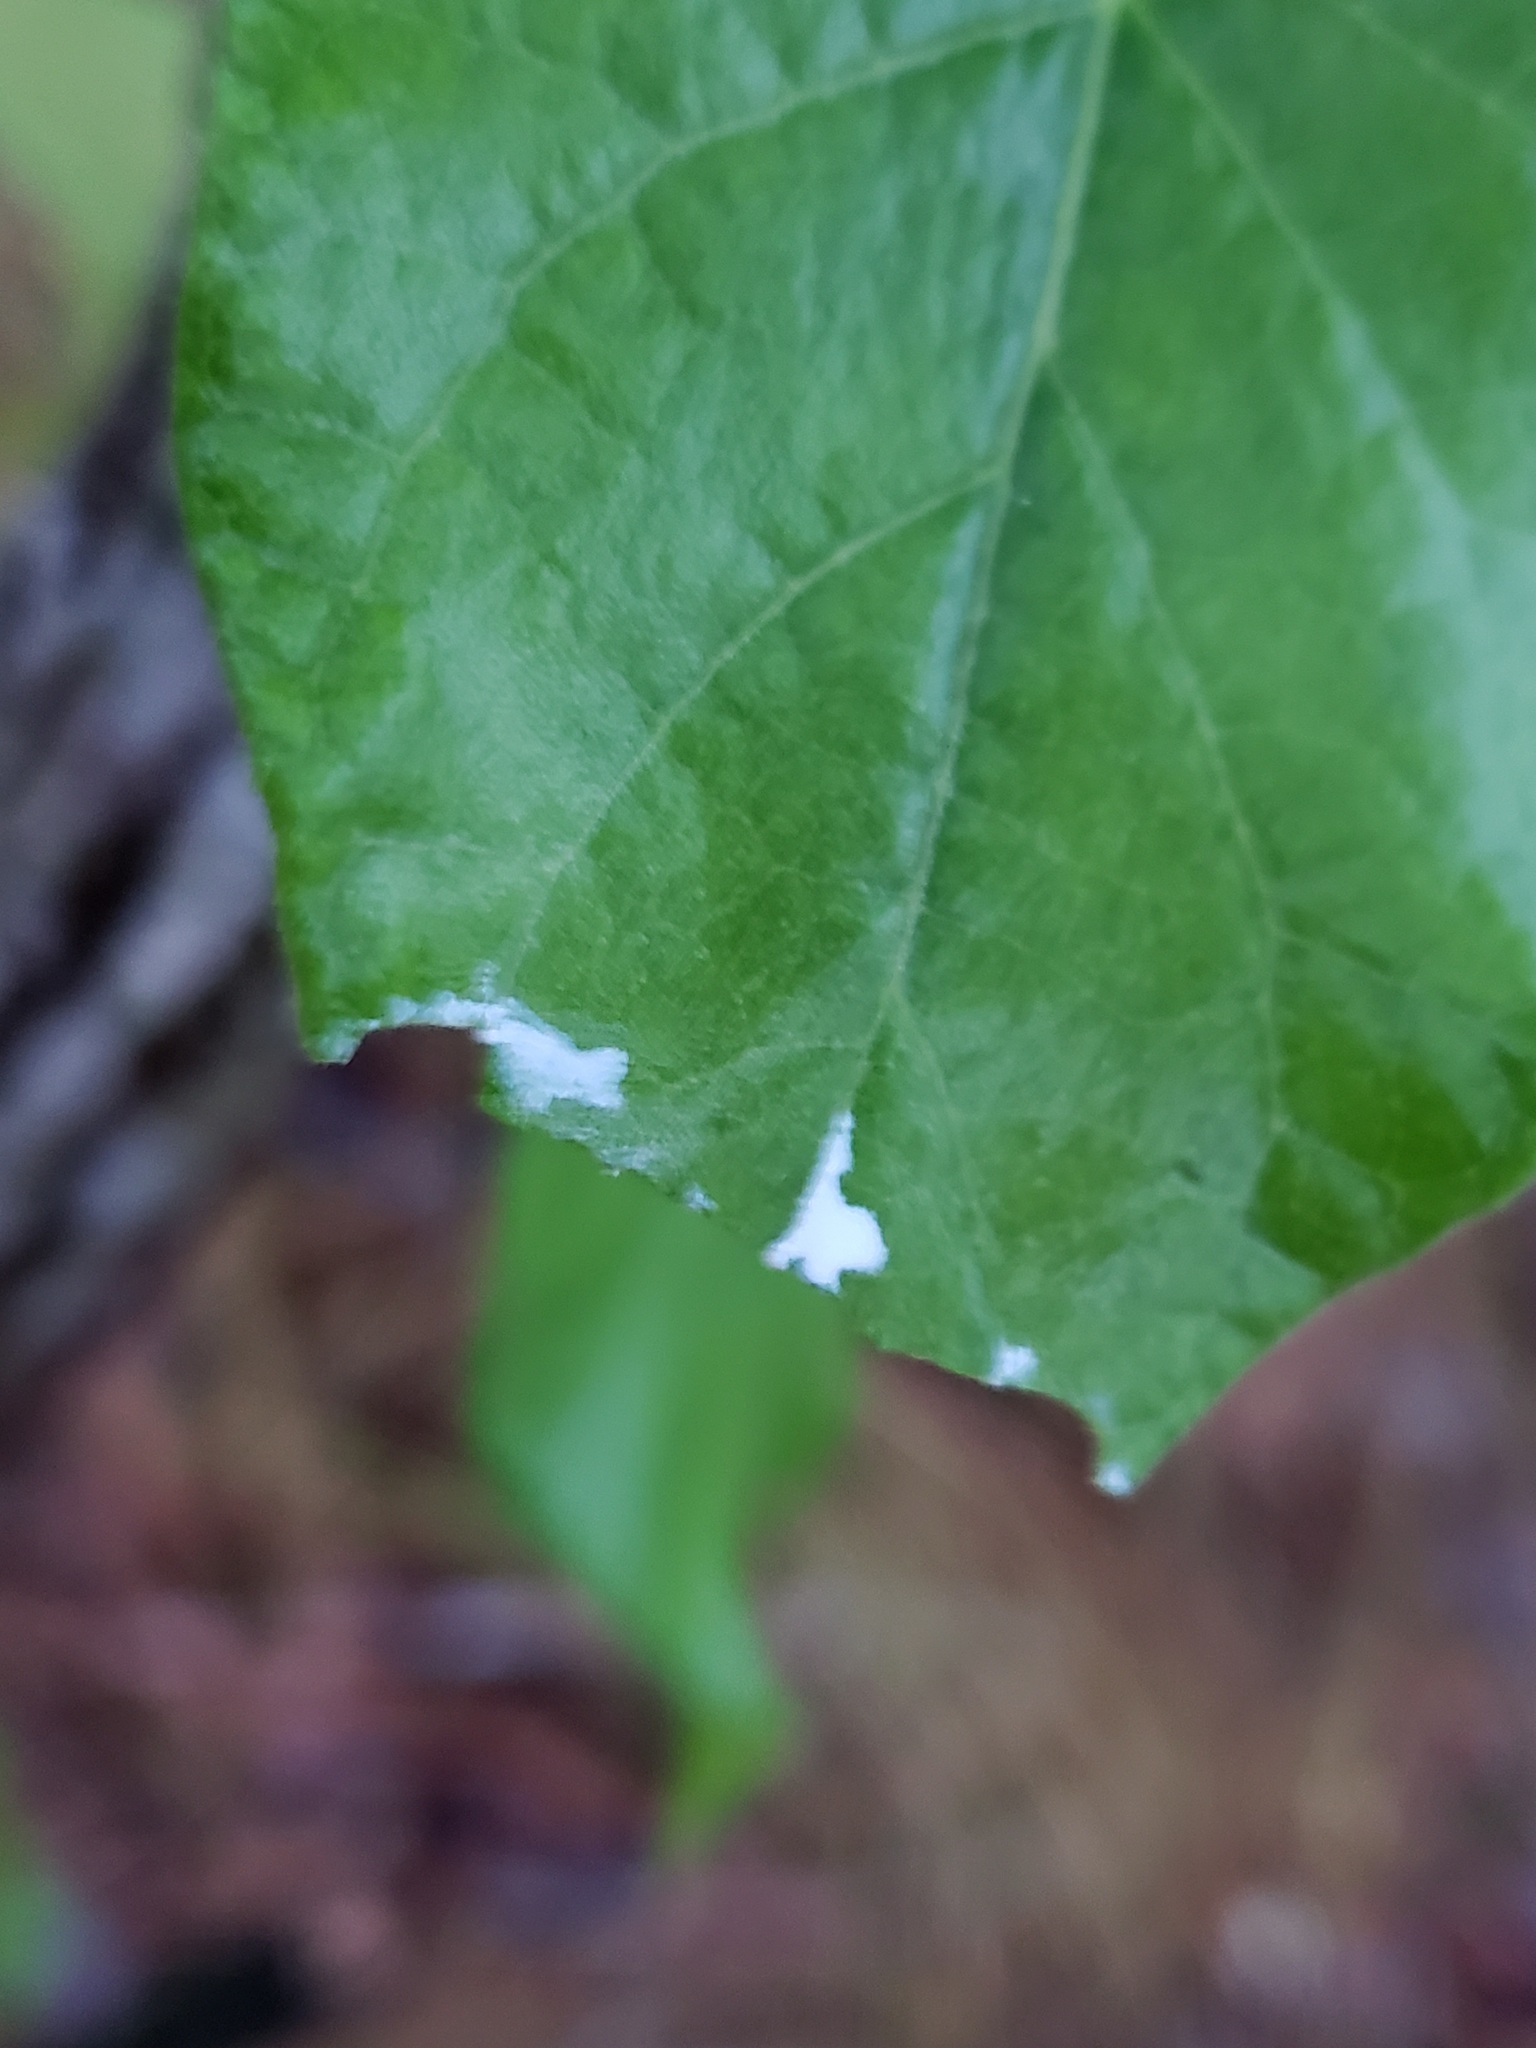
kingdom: Plantae
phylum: Tracheophyta
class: Magnoliopsida
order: Gentianales
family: Apocynaceae
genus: Gonolobus
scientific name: Gonolobus suberosus
